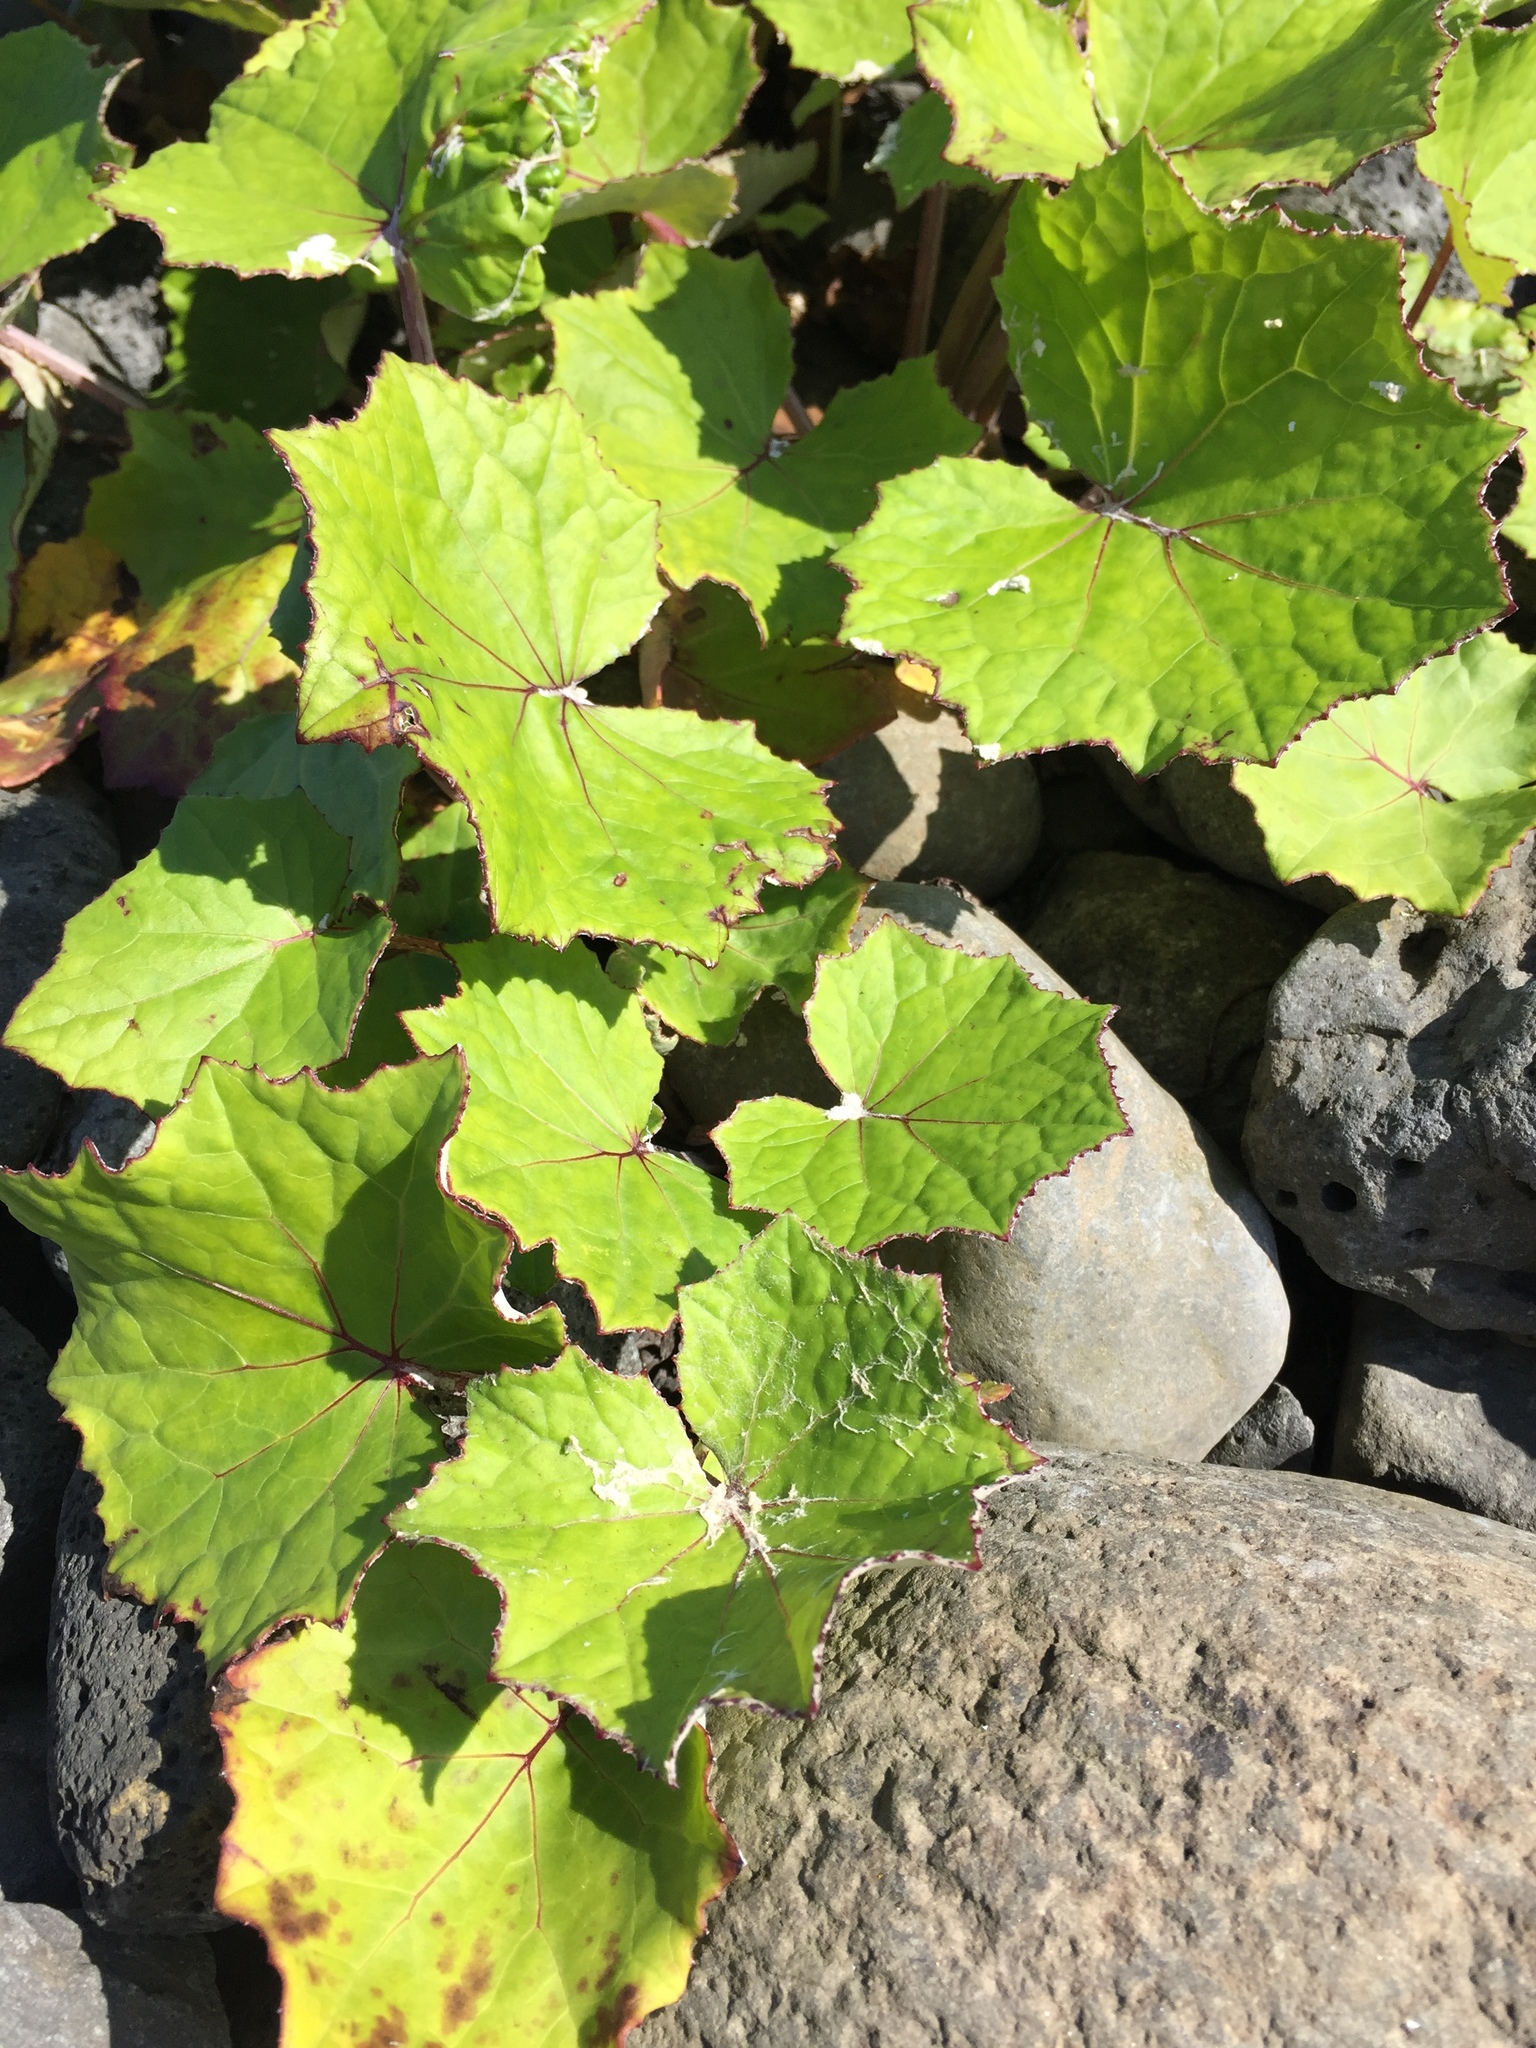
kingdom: Plantae
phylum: Tracheophyta
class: Magnoliopsida
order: Asterales
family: Asteraceae
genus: Tussilago
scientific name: Tussilago farfara
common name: Coltsfoot
